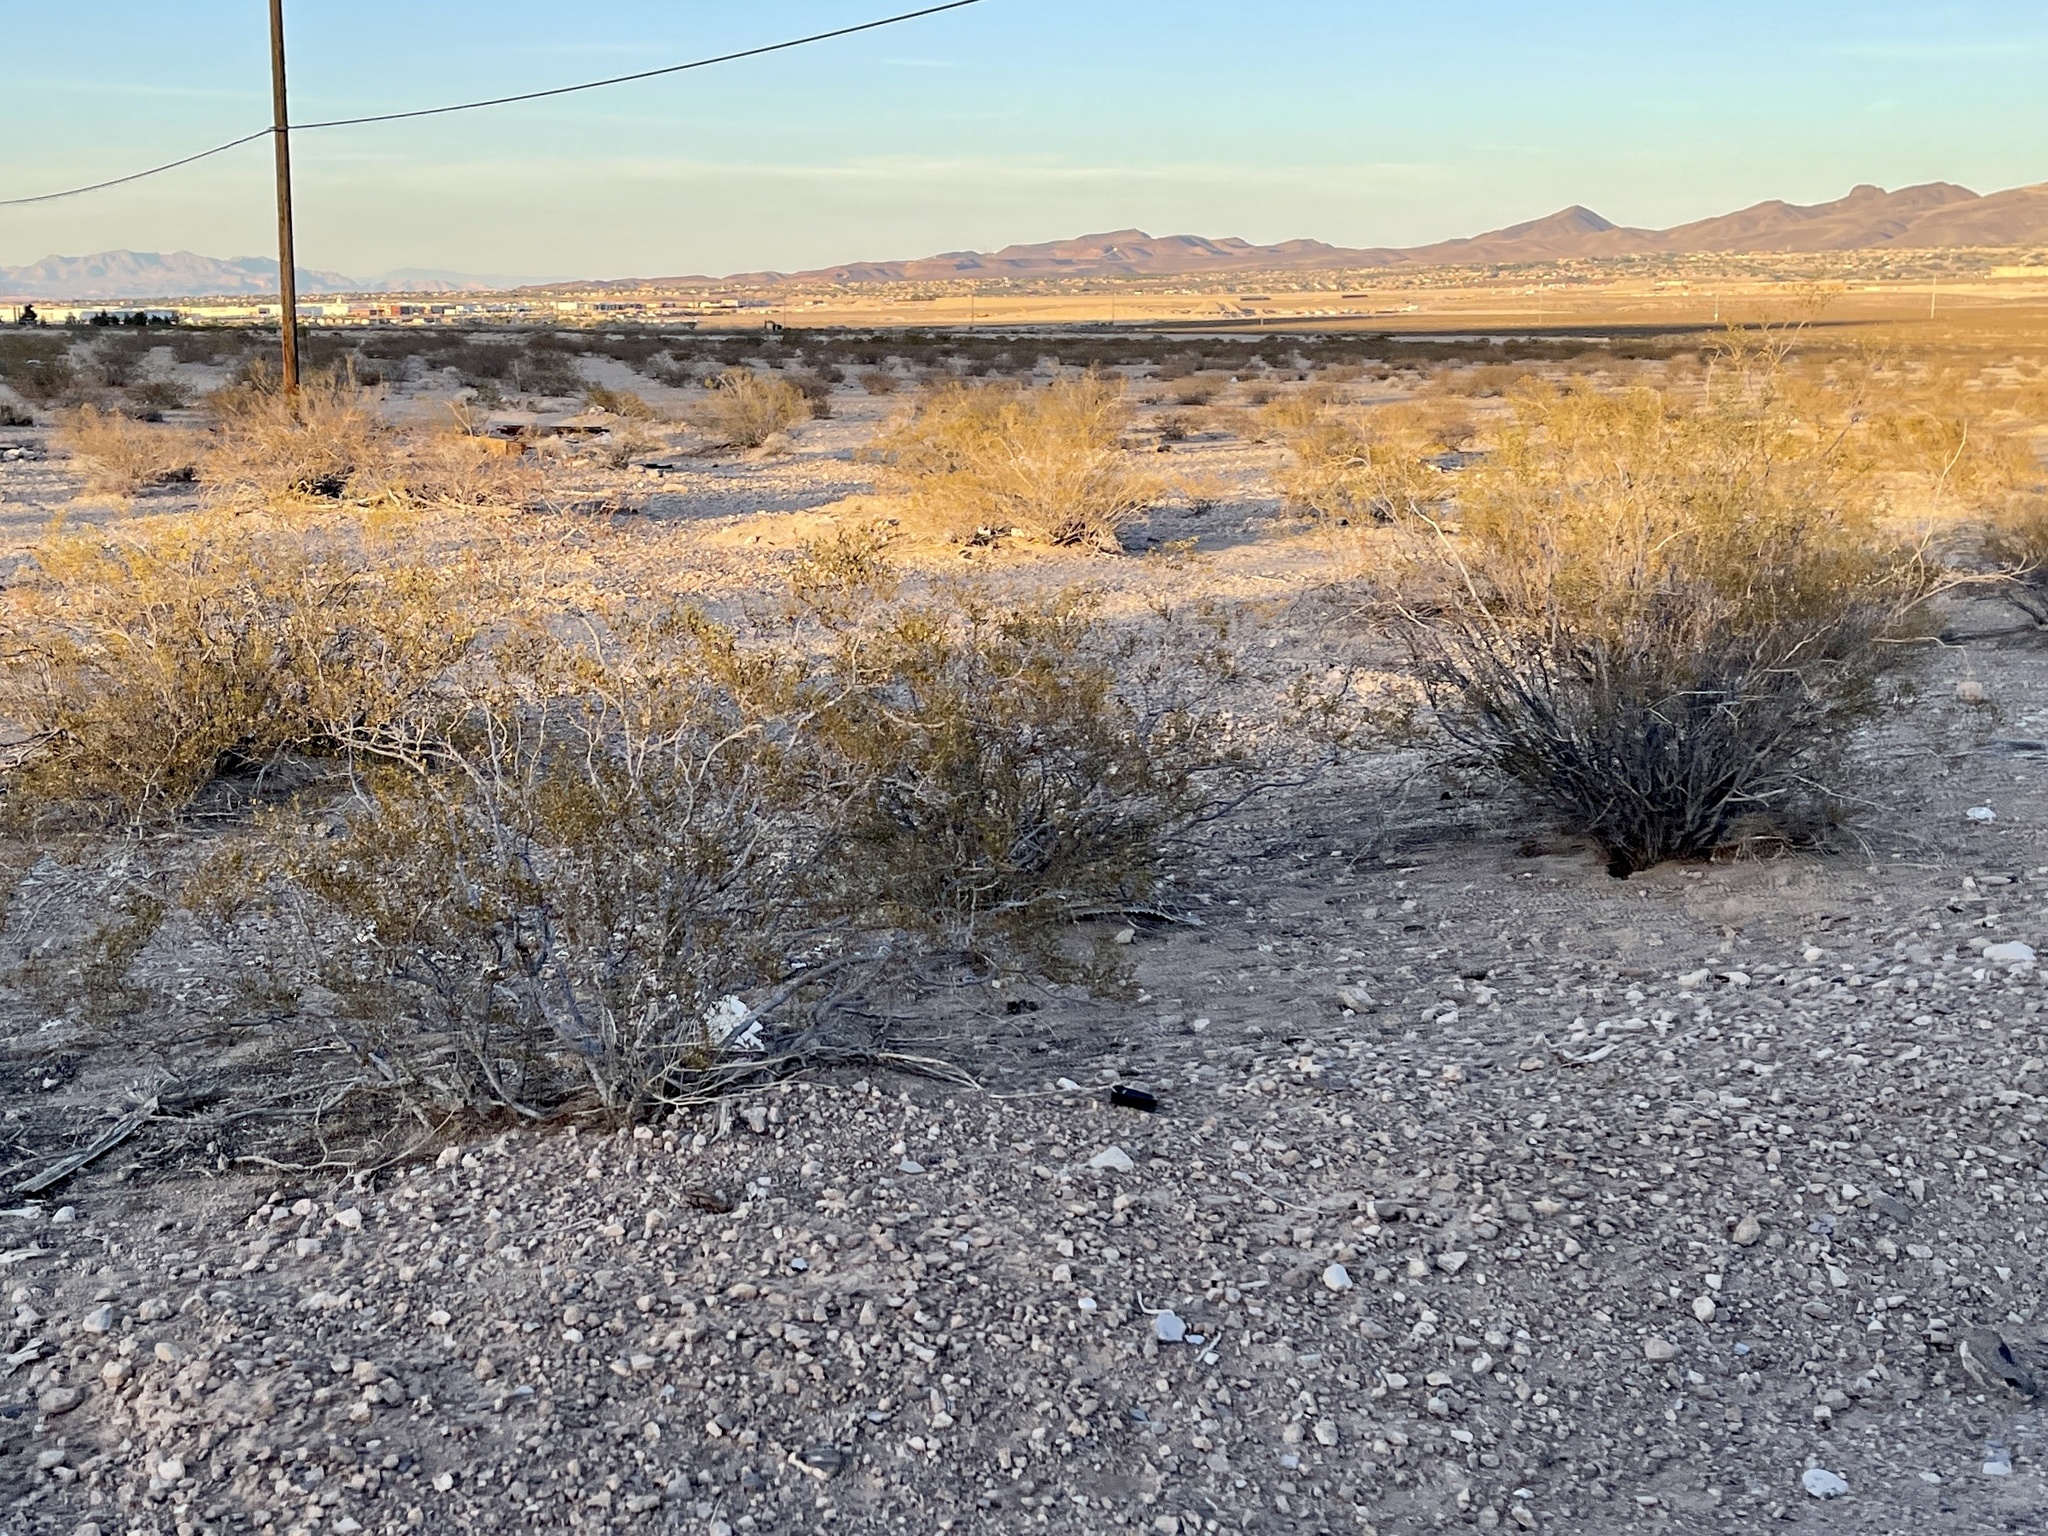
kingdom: Plantae
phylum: Tracheophyta
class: Magnoliopsida
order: Zygophyllales
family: Zygophyllaceae
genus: Larrea
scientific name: Larrea tridentata
